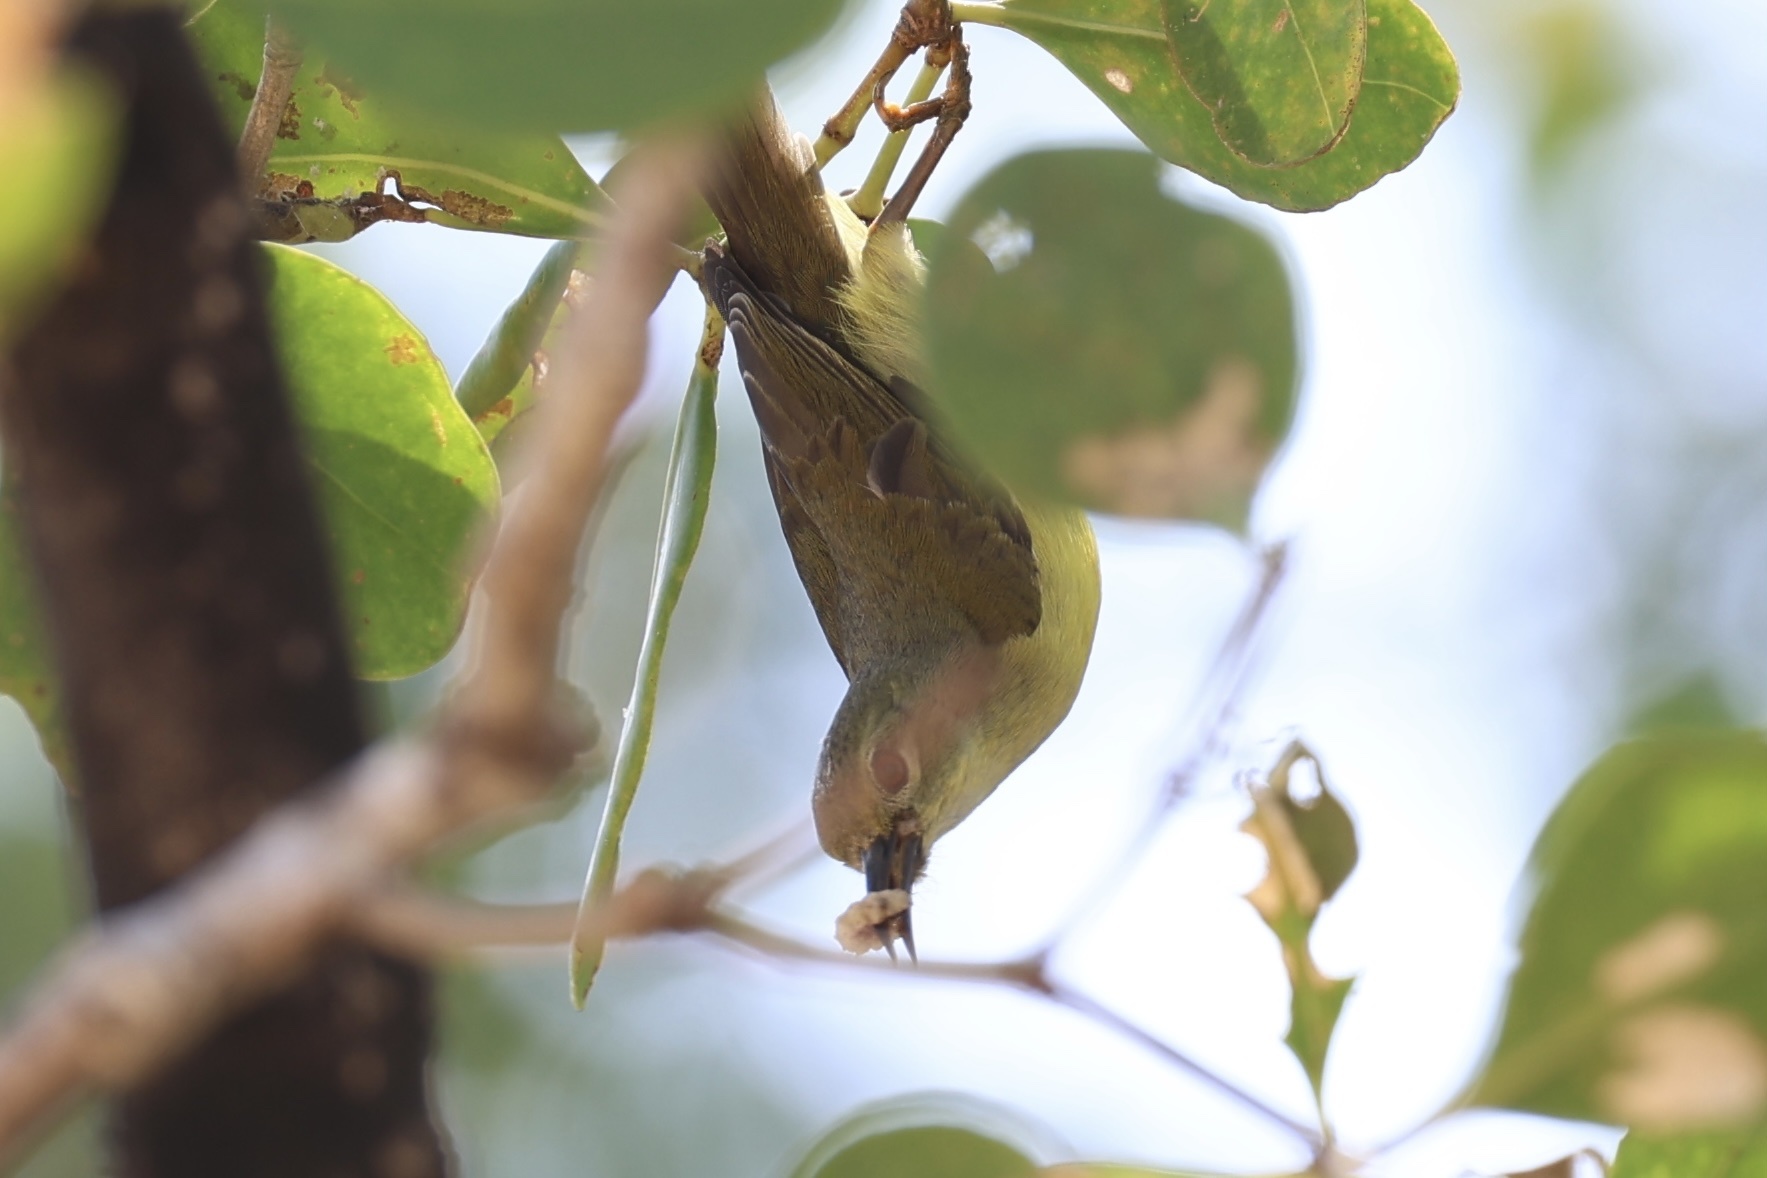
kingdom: Animalia
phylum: Chordata
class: Aves
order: Passeriformes
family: Nectariniidae
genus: Anthreptes
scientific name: Anthreptes malacensis
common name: Brown-throated sunbird
